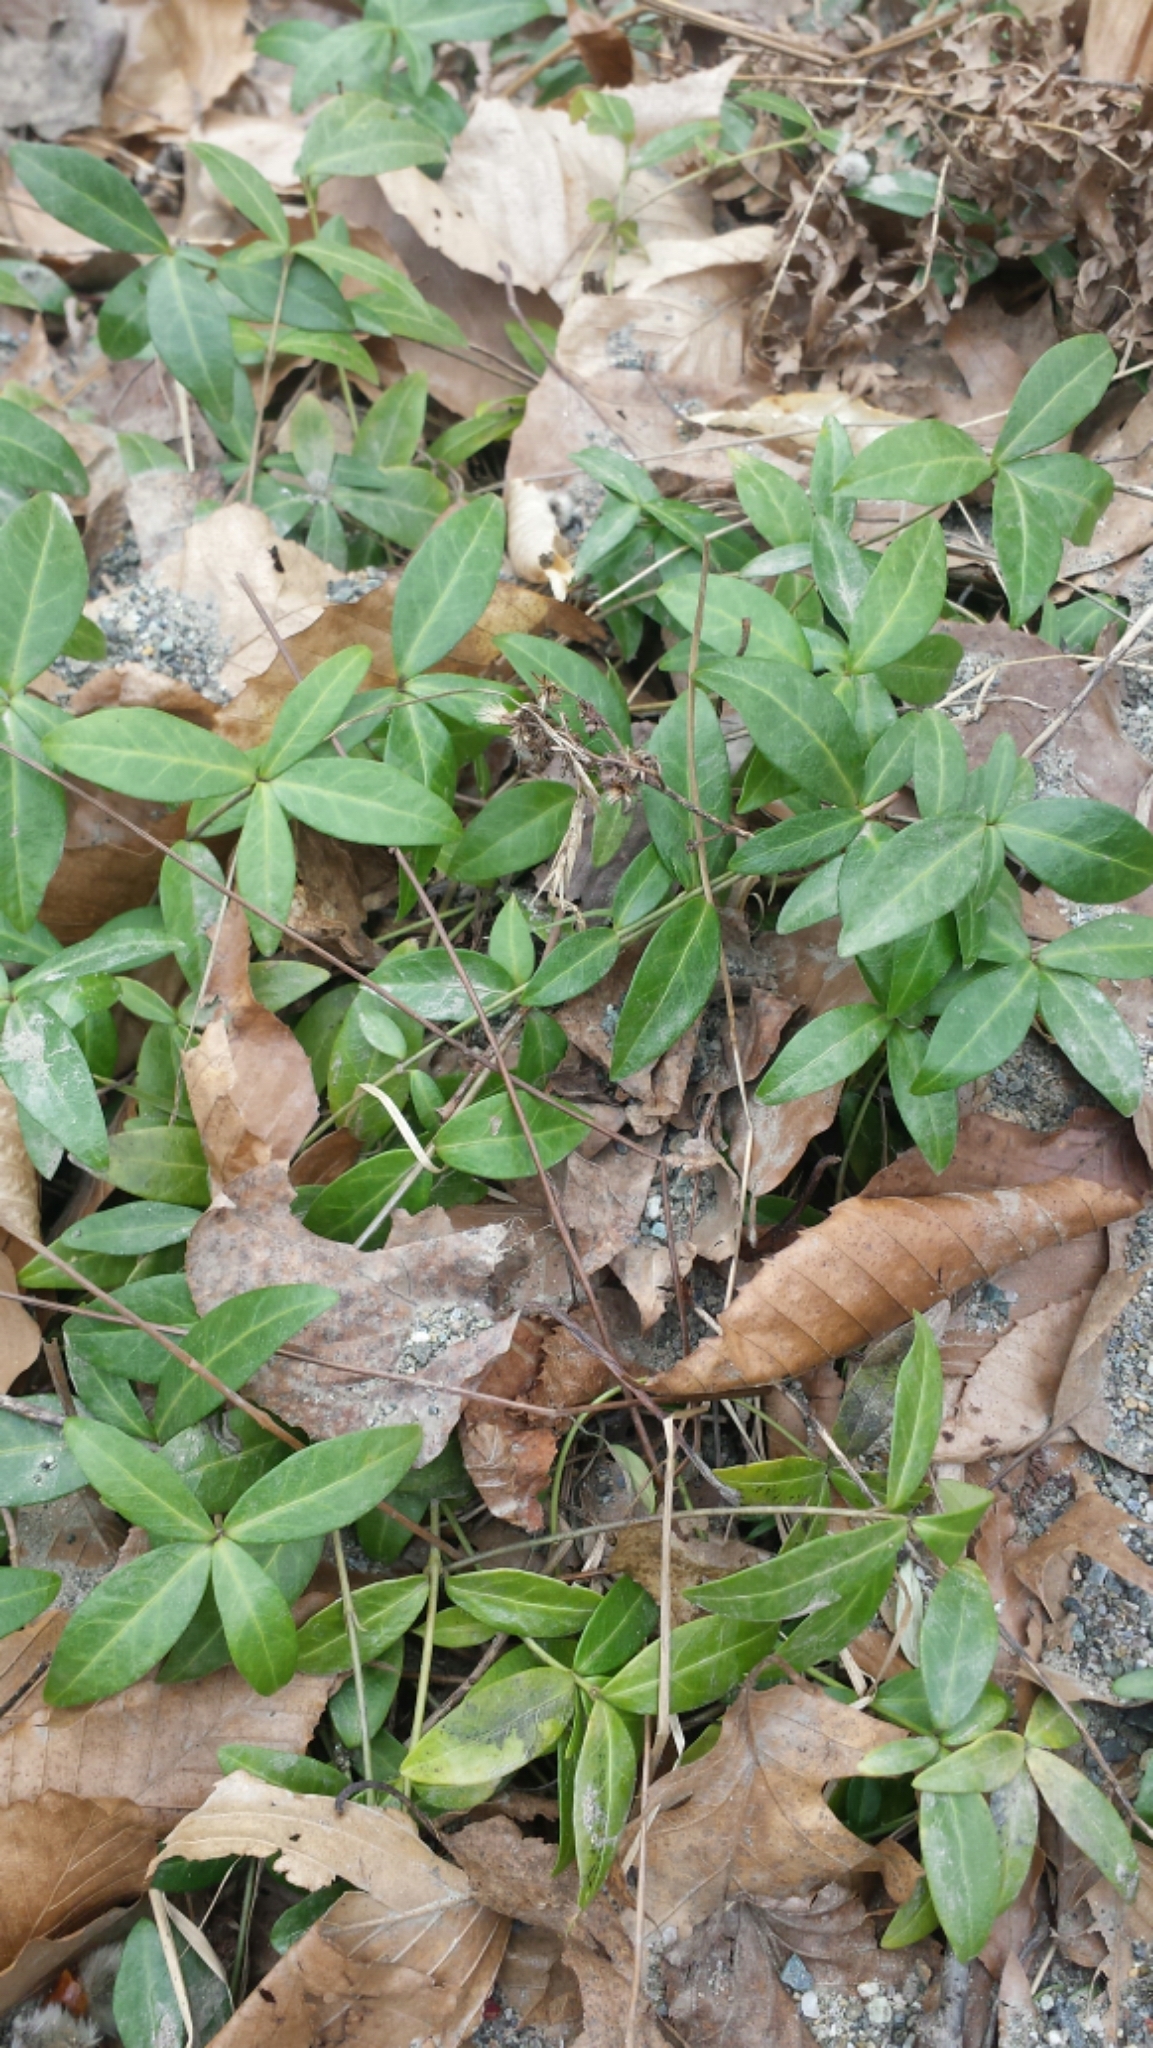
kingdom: Plantae
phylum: Tracheophyta
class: Magnoliopsida
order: Gentianales
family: Apocynaceae
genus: Vinca
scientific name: Vinca minor
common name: Lesser periwinkle
